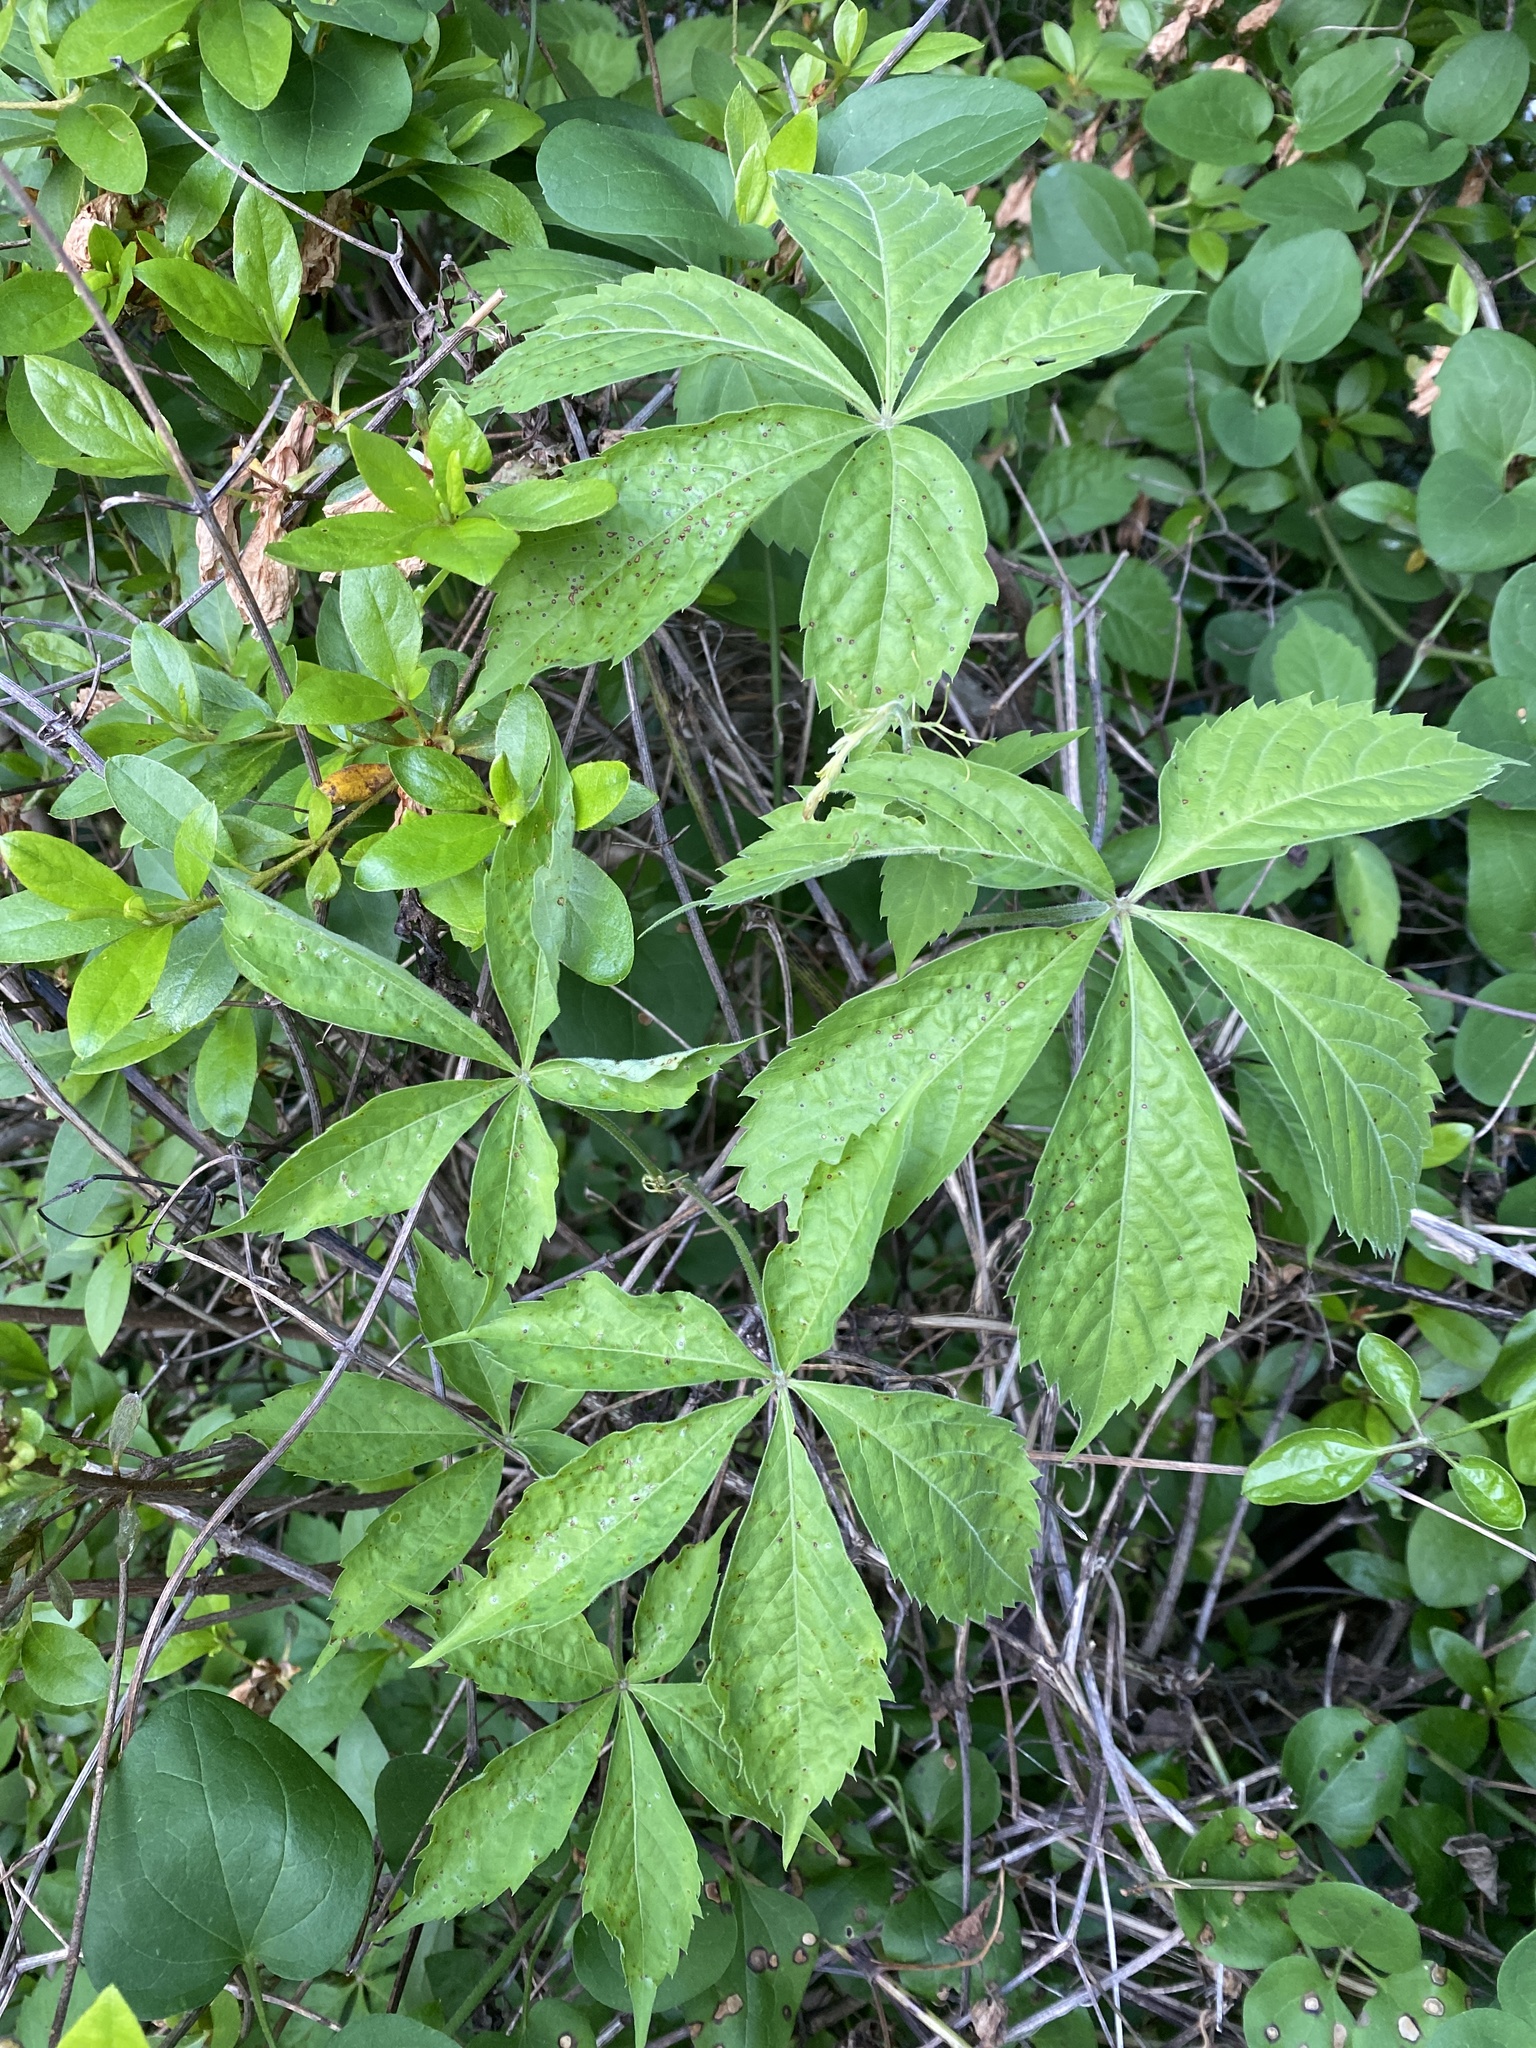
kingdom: Plantae
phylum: Tracheophyta
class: Magnoliopsida
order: Vitales
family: Vitaceae
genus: Parthenocissus
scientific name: Parthenocissus quinquefolia
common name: Virginia-creeper
